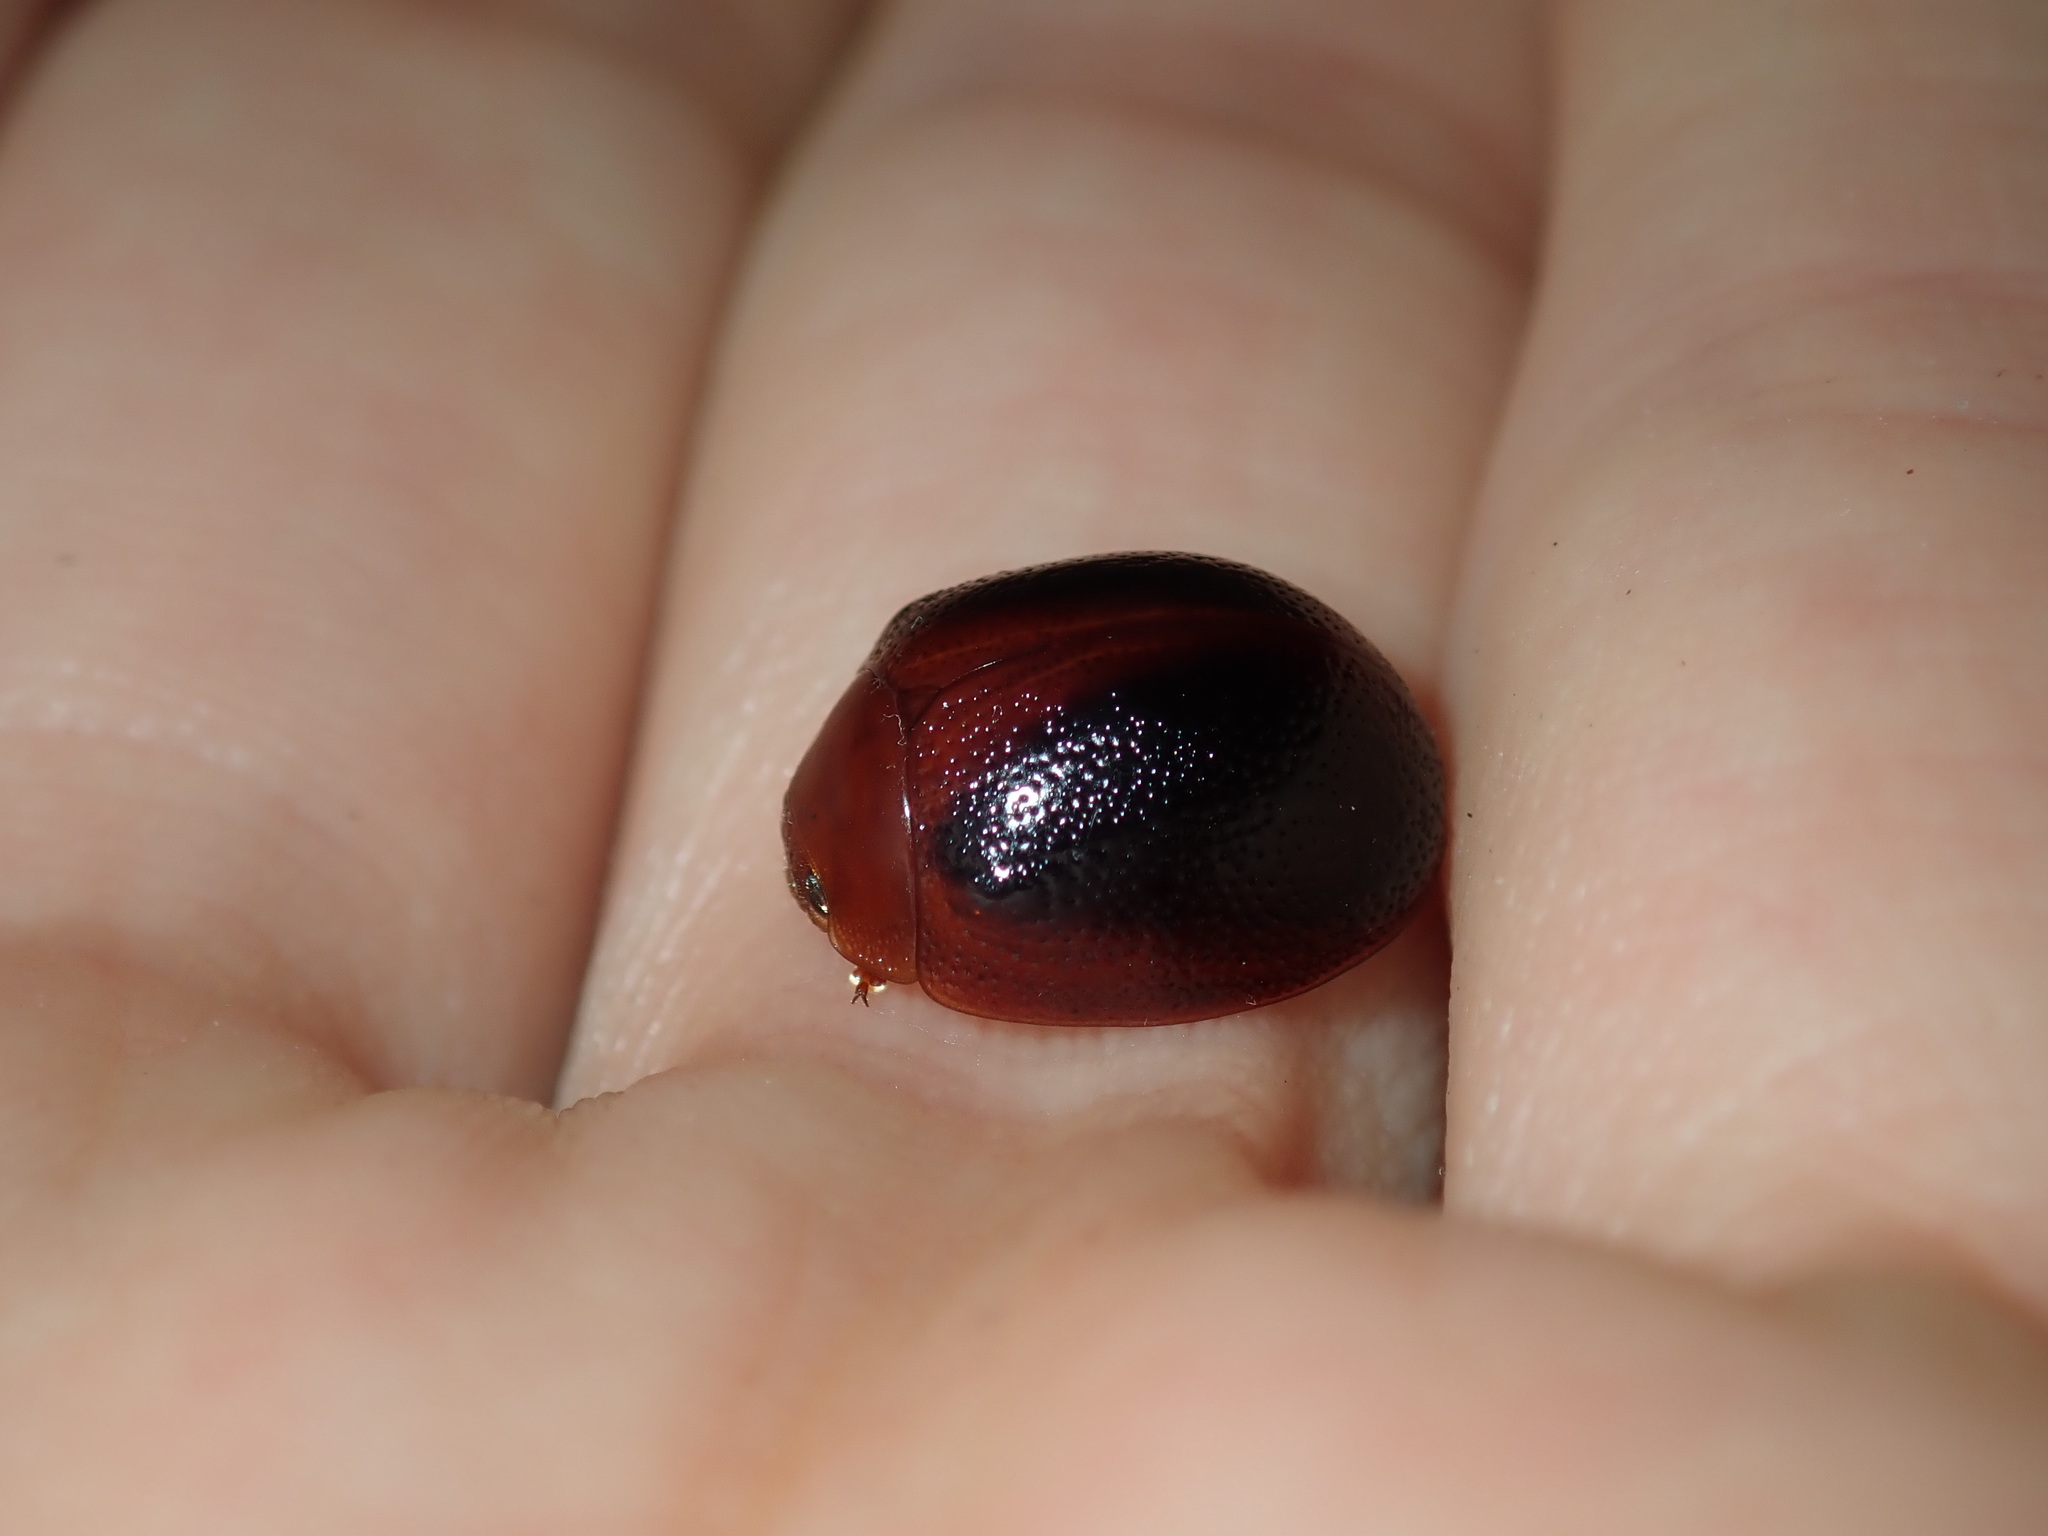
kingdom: Animalia
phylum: Arthropoda
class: Insecta
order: Coleoptera
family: Chrysomelidae
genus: Dicranosterna
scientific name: Dicranosterna
